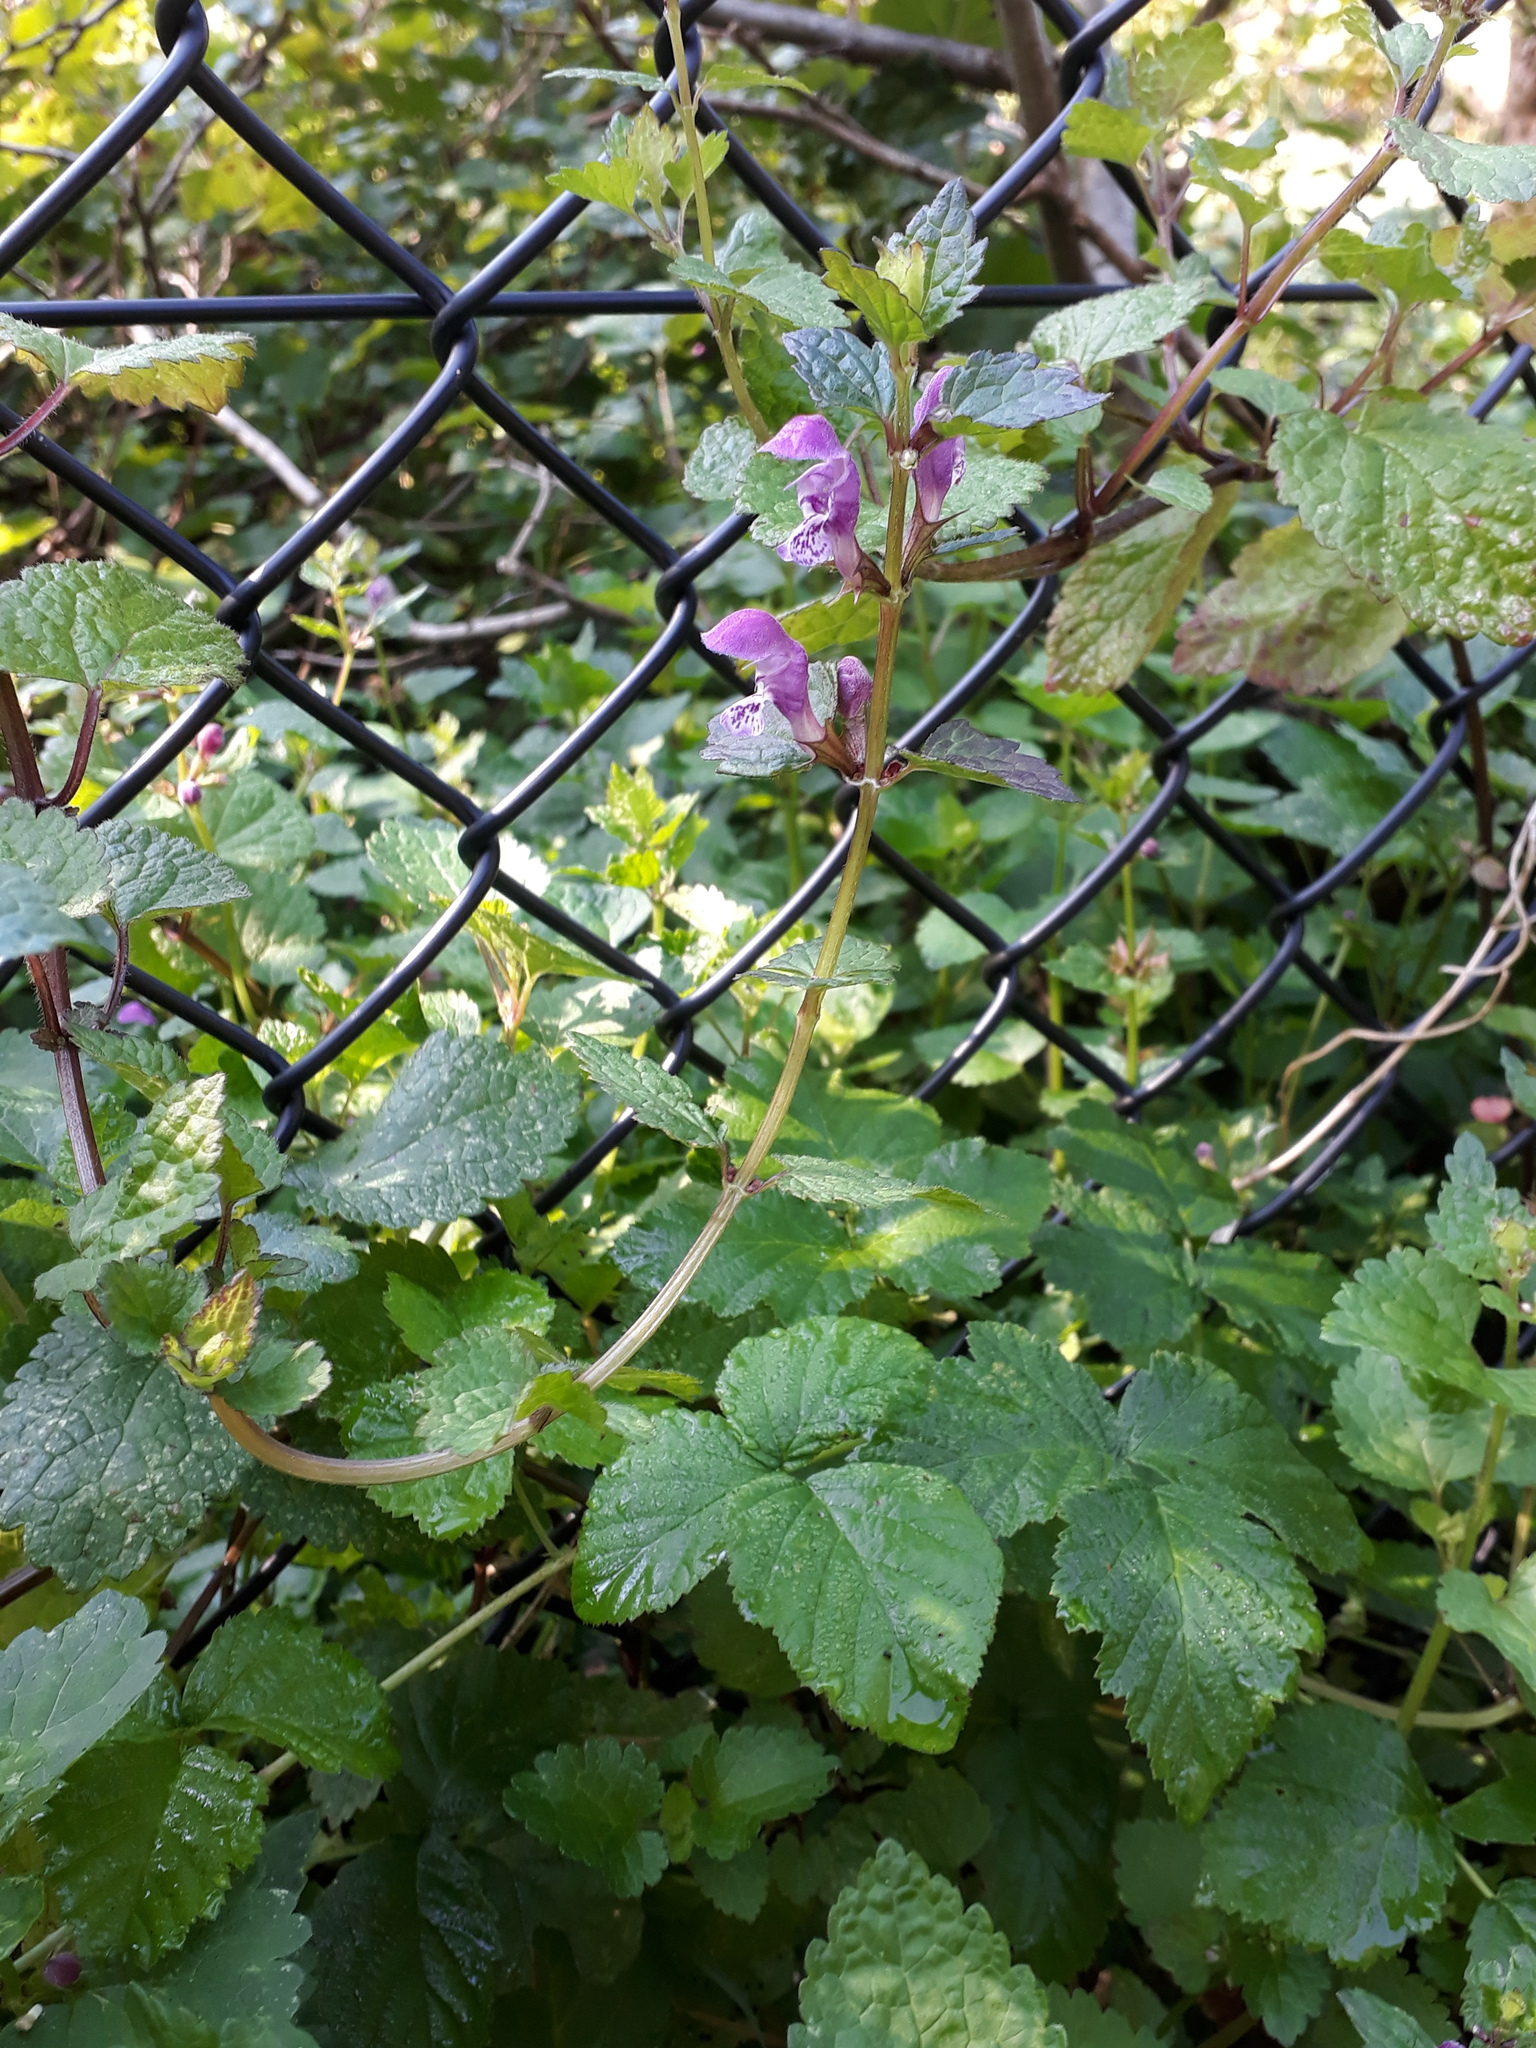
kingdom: Plantae
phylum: Tracheophyta
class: Magnoliopsida
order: Lamiales
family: Lamiaceae
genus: Lamium
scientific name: Lamium maculatum
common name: Spotted dead-nettle
